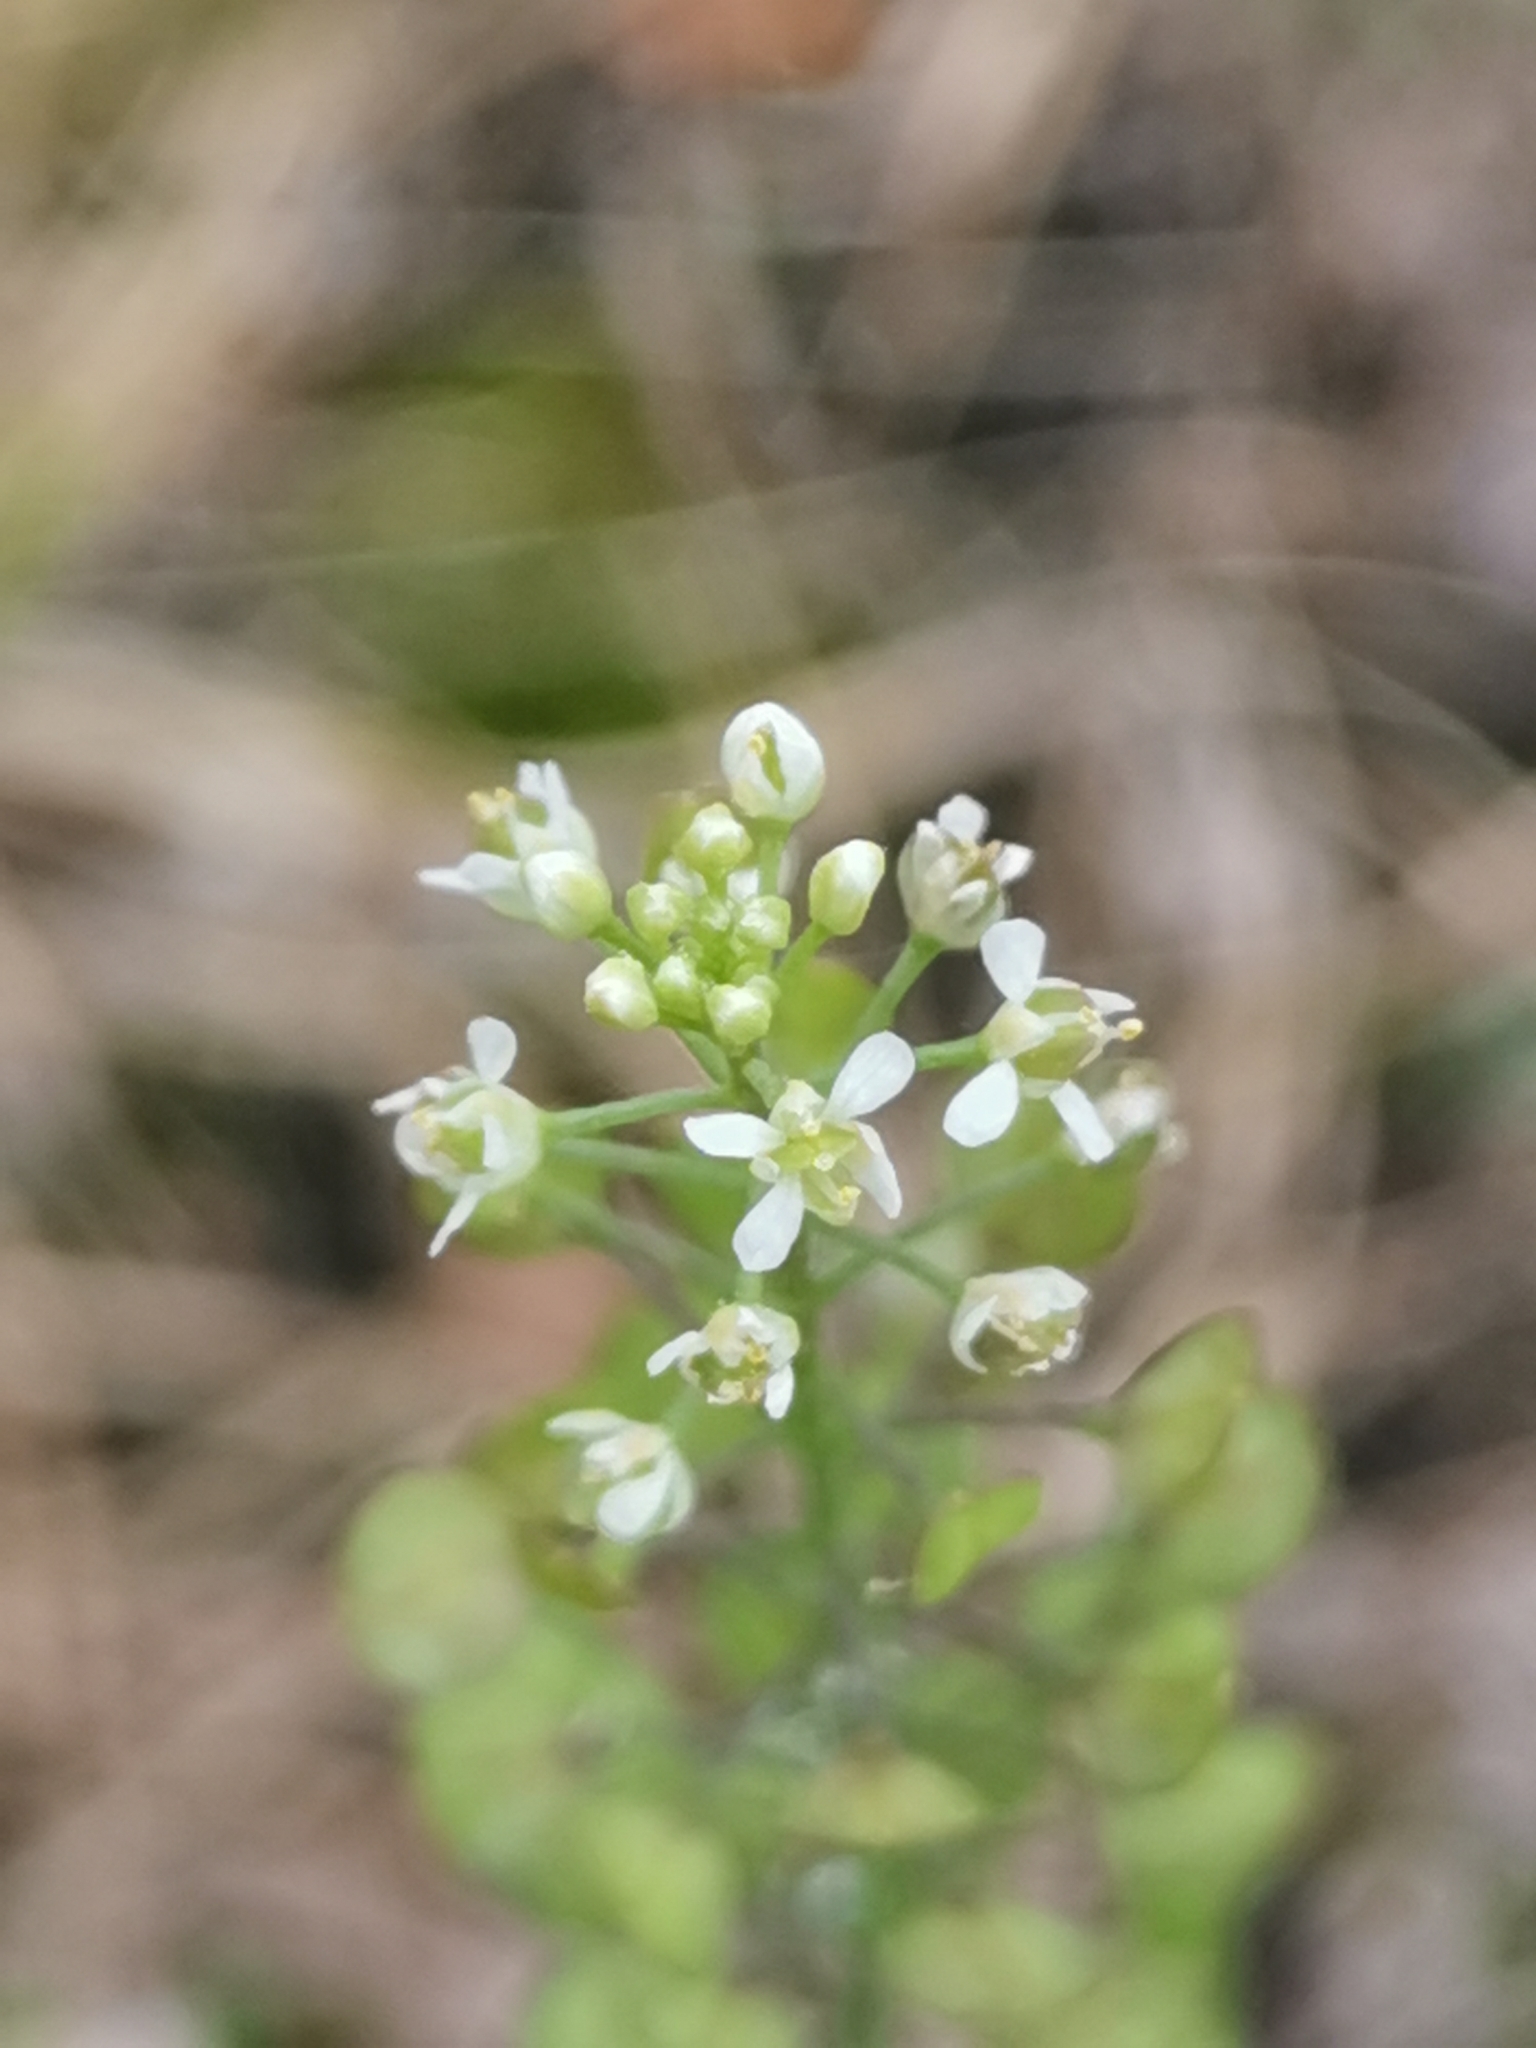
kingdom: Plantae
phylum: Tracheophyta
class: Magnoliopsida
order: Brassicales
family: Brassicaceae
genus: Lepidium
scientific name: Lepidium virginicum
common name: Least pepperwort
